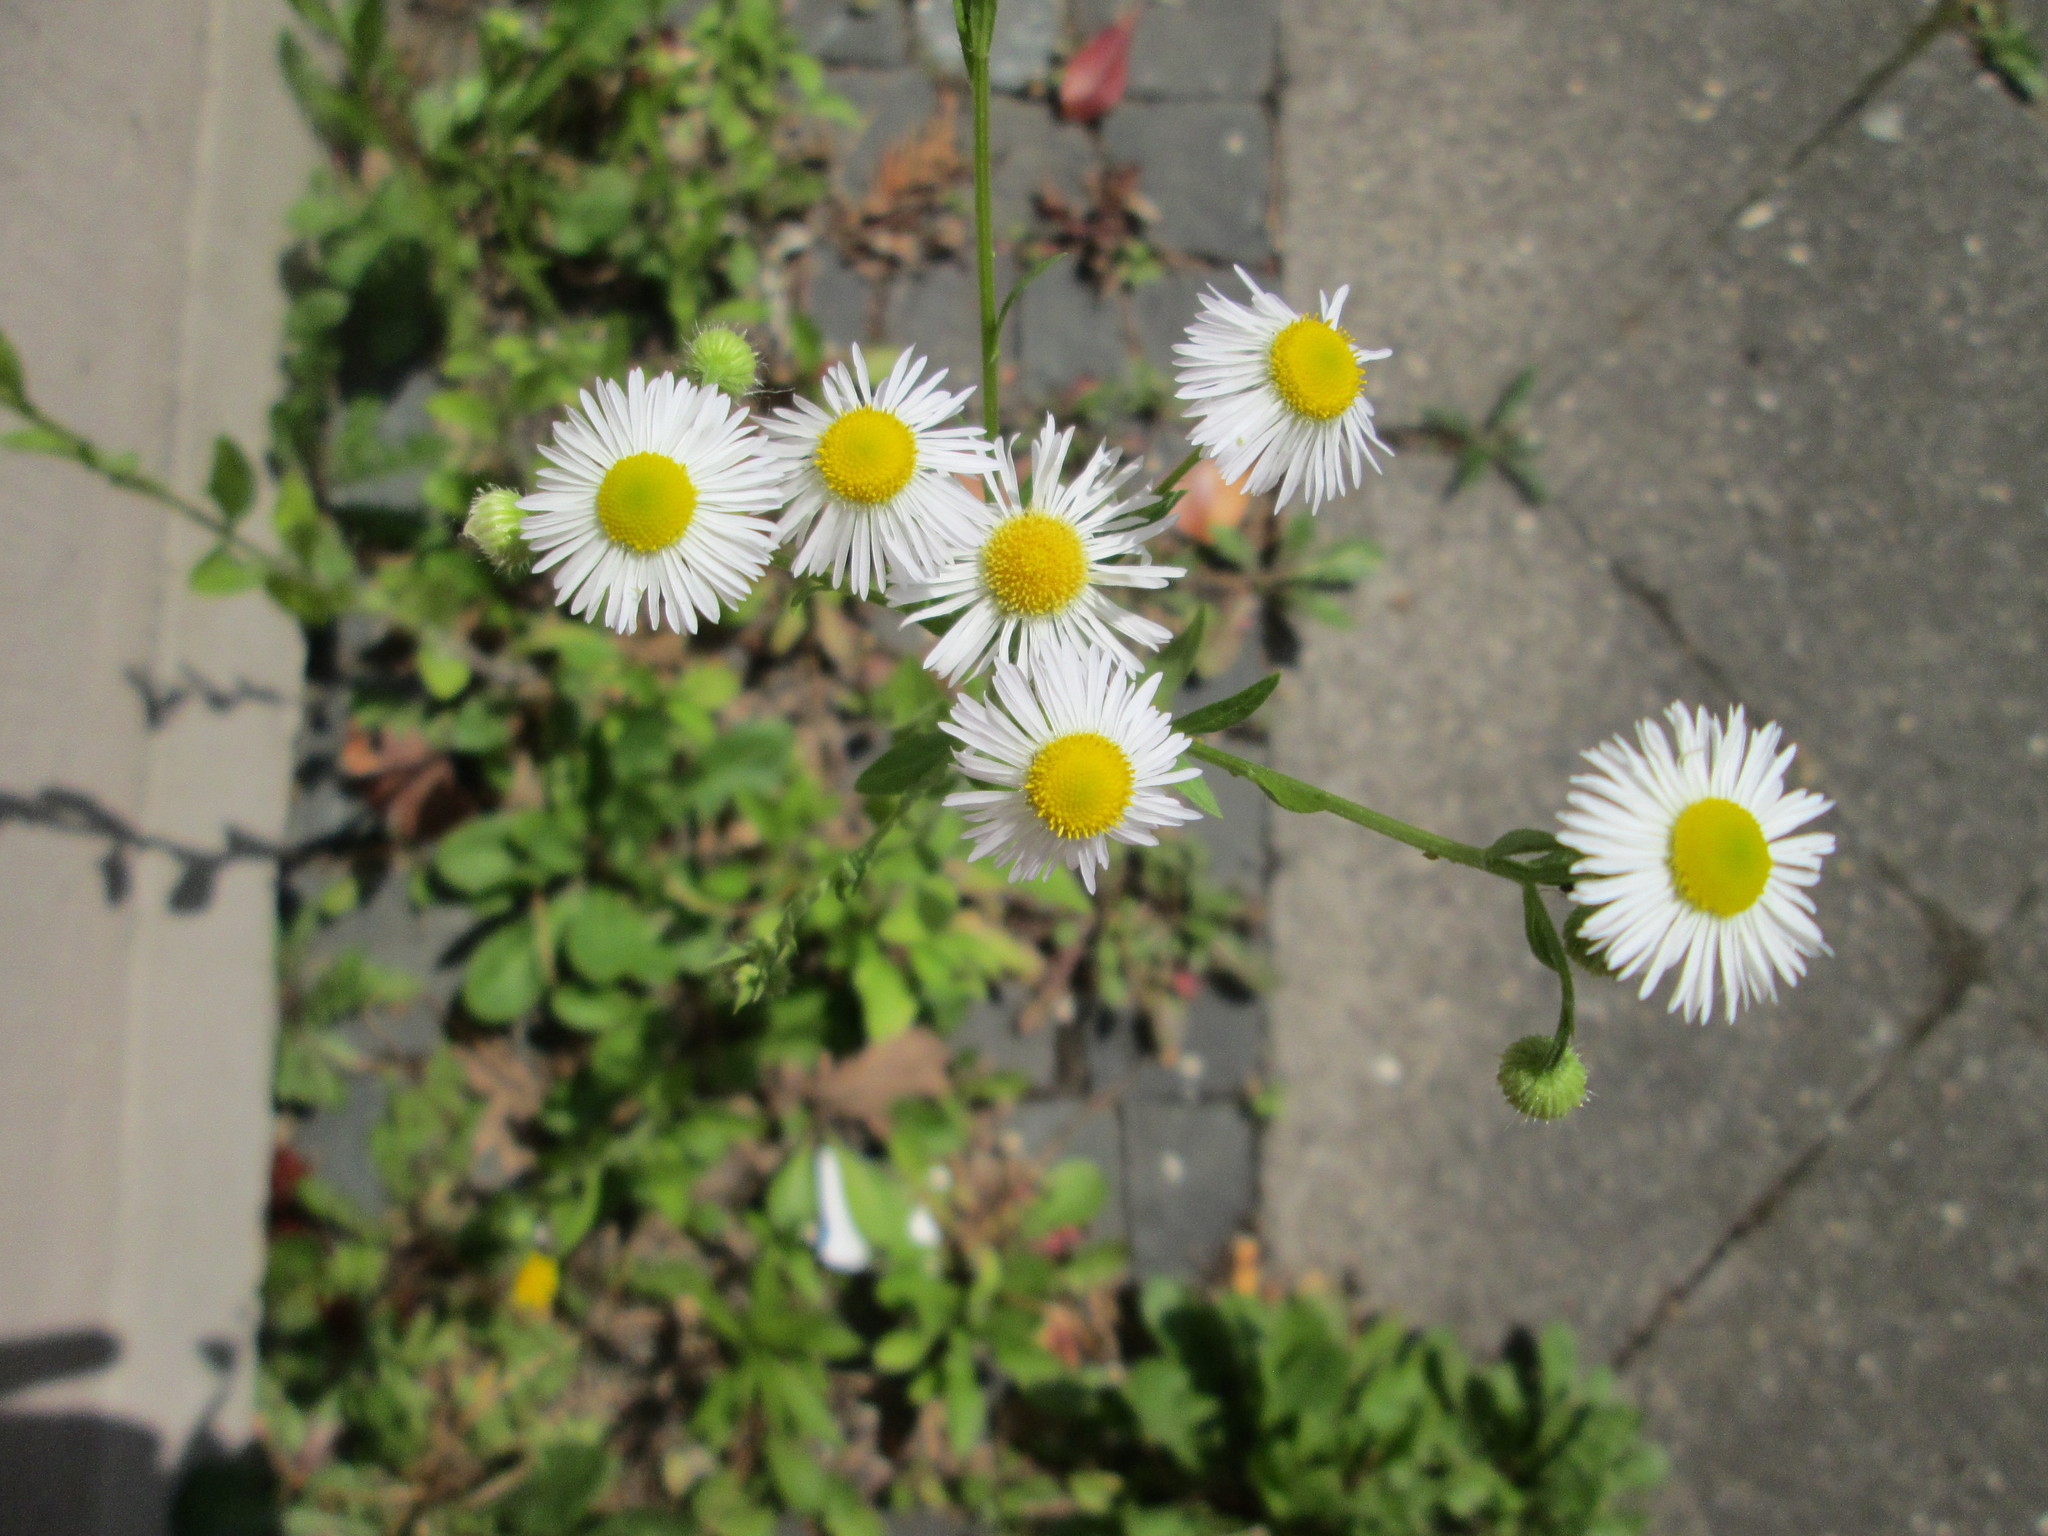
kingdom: Plantae
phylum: Tracheophyta
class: Magnoliopsida
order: Asterales
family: Asteraceae
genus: Erigeron
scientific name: Erigeron annuus
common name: Tall fleabane
